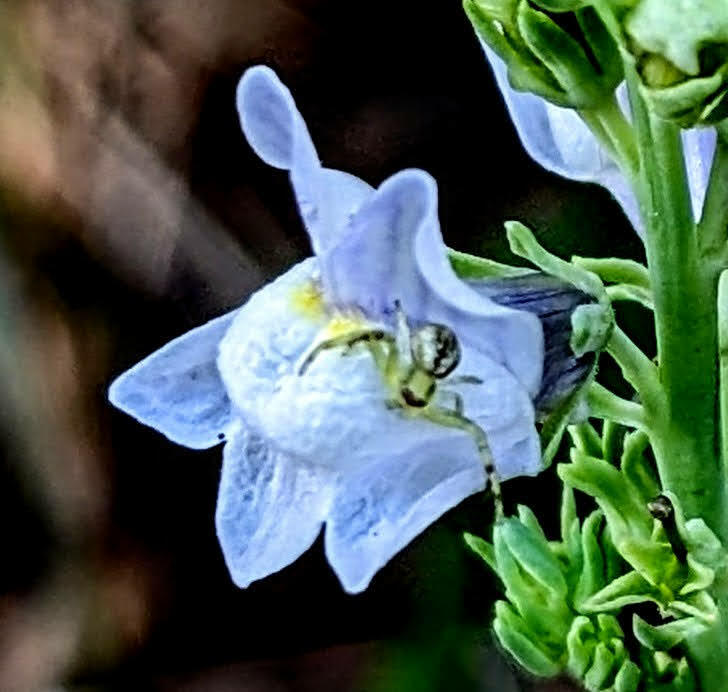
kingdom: Animalia
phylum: Arthropoda
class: Arachnida
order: Araneae
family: Thomisidae
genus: Misumena
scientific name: Misumena vatia
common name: Goldenrod crab spider
